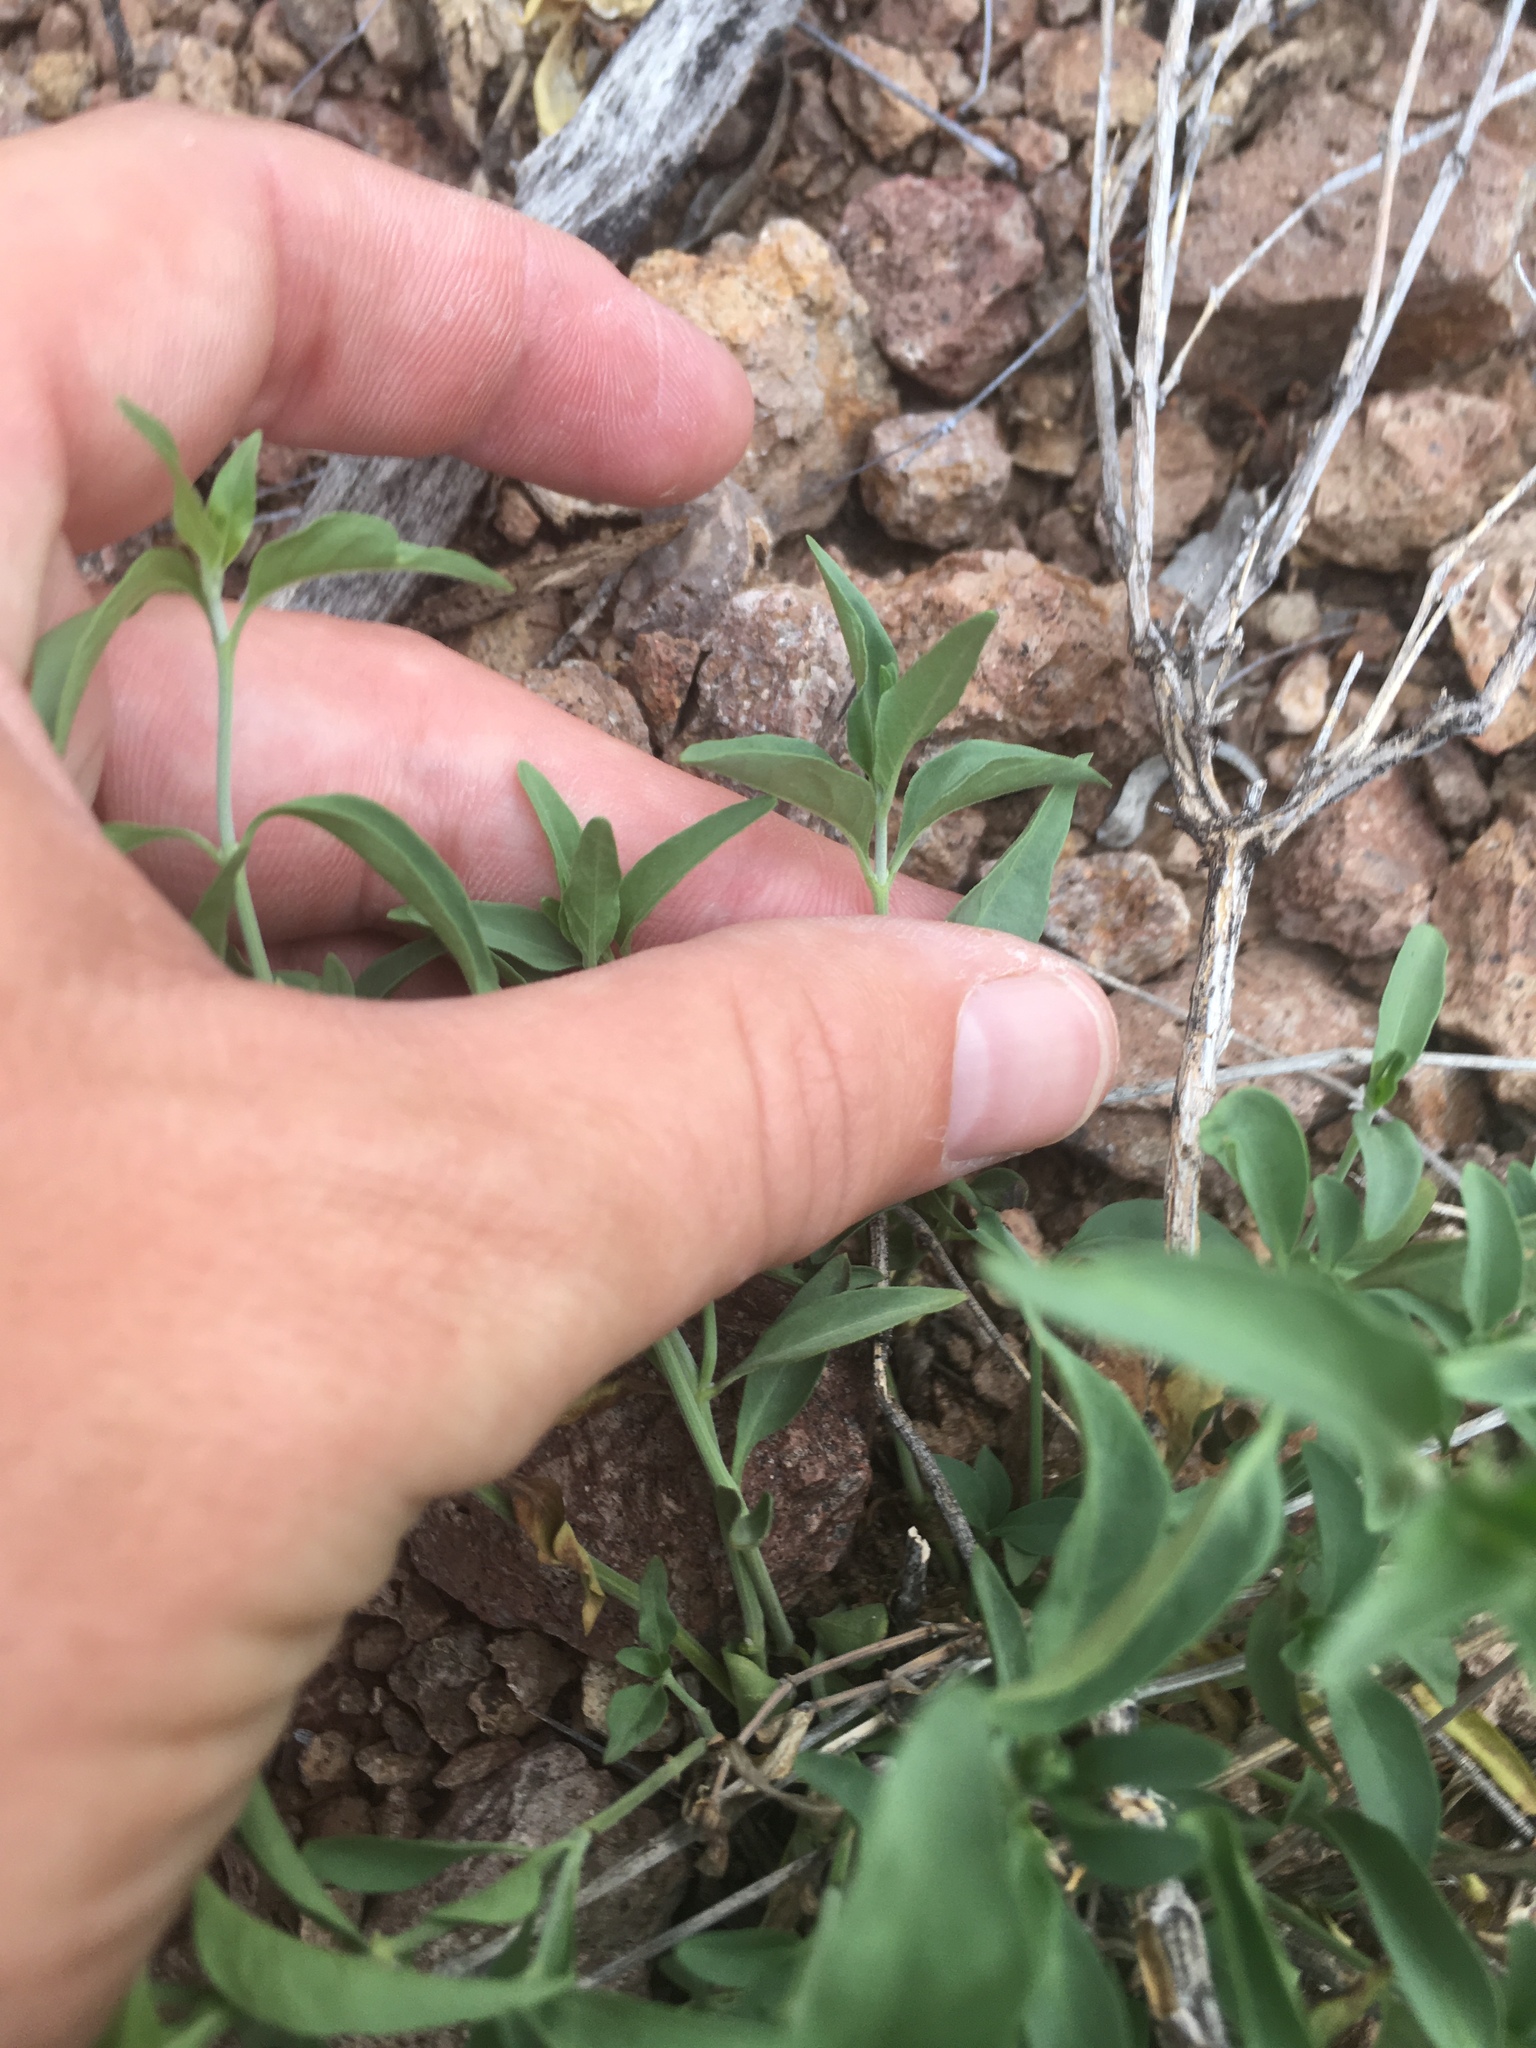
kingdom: Plantae
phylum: Tracheophyta
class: Magnoliopsida
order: Lamiales
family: Acanthaceae
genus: Justicia
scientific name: Justicia longii
